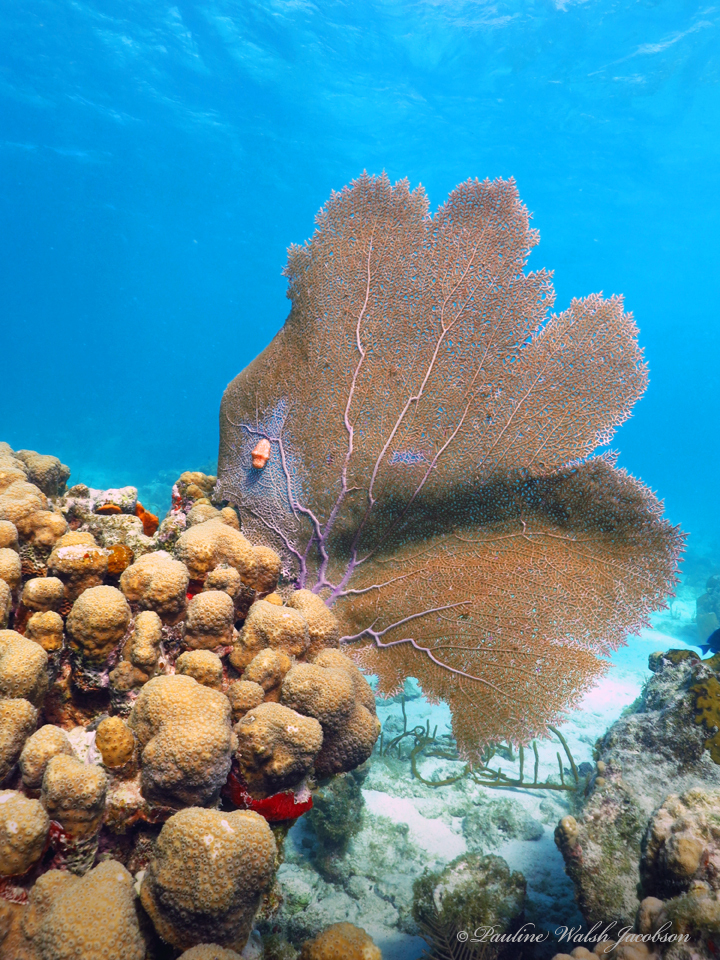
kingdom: Animalia
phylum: Cnidaria
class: Anthozoa
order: Scleractinia
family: Merulinidae
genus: Orbicella
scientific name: Orbicella annularis
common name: Boulder star coral
